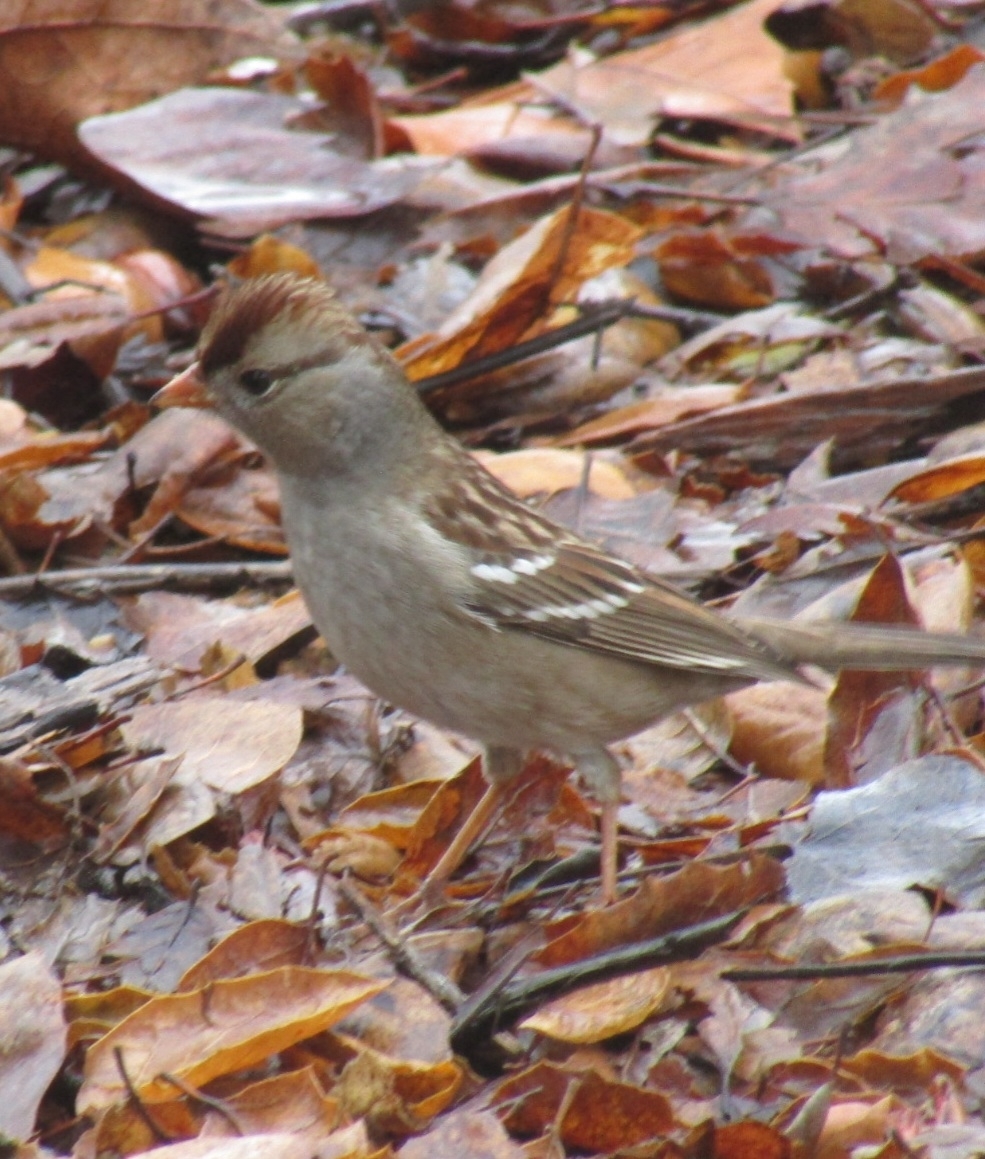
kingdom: Animalia
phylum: Chordata
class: Aves
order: Passeriformes
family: Passerellidae
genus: Zonotrichia
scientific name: Zonotrichia leucophrys
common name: White-crowned sparrow
